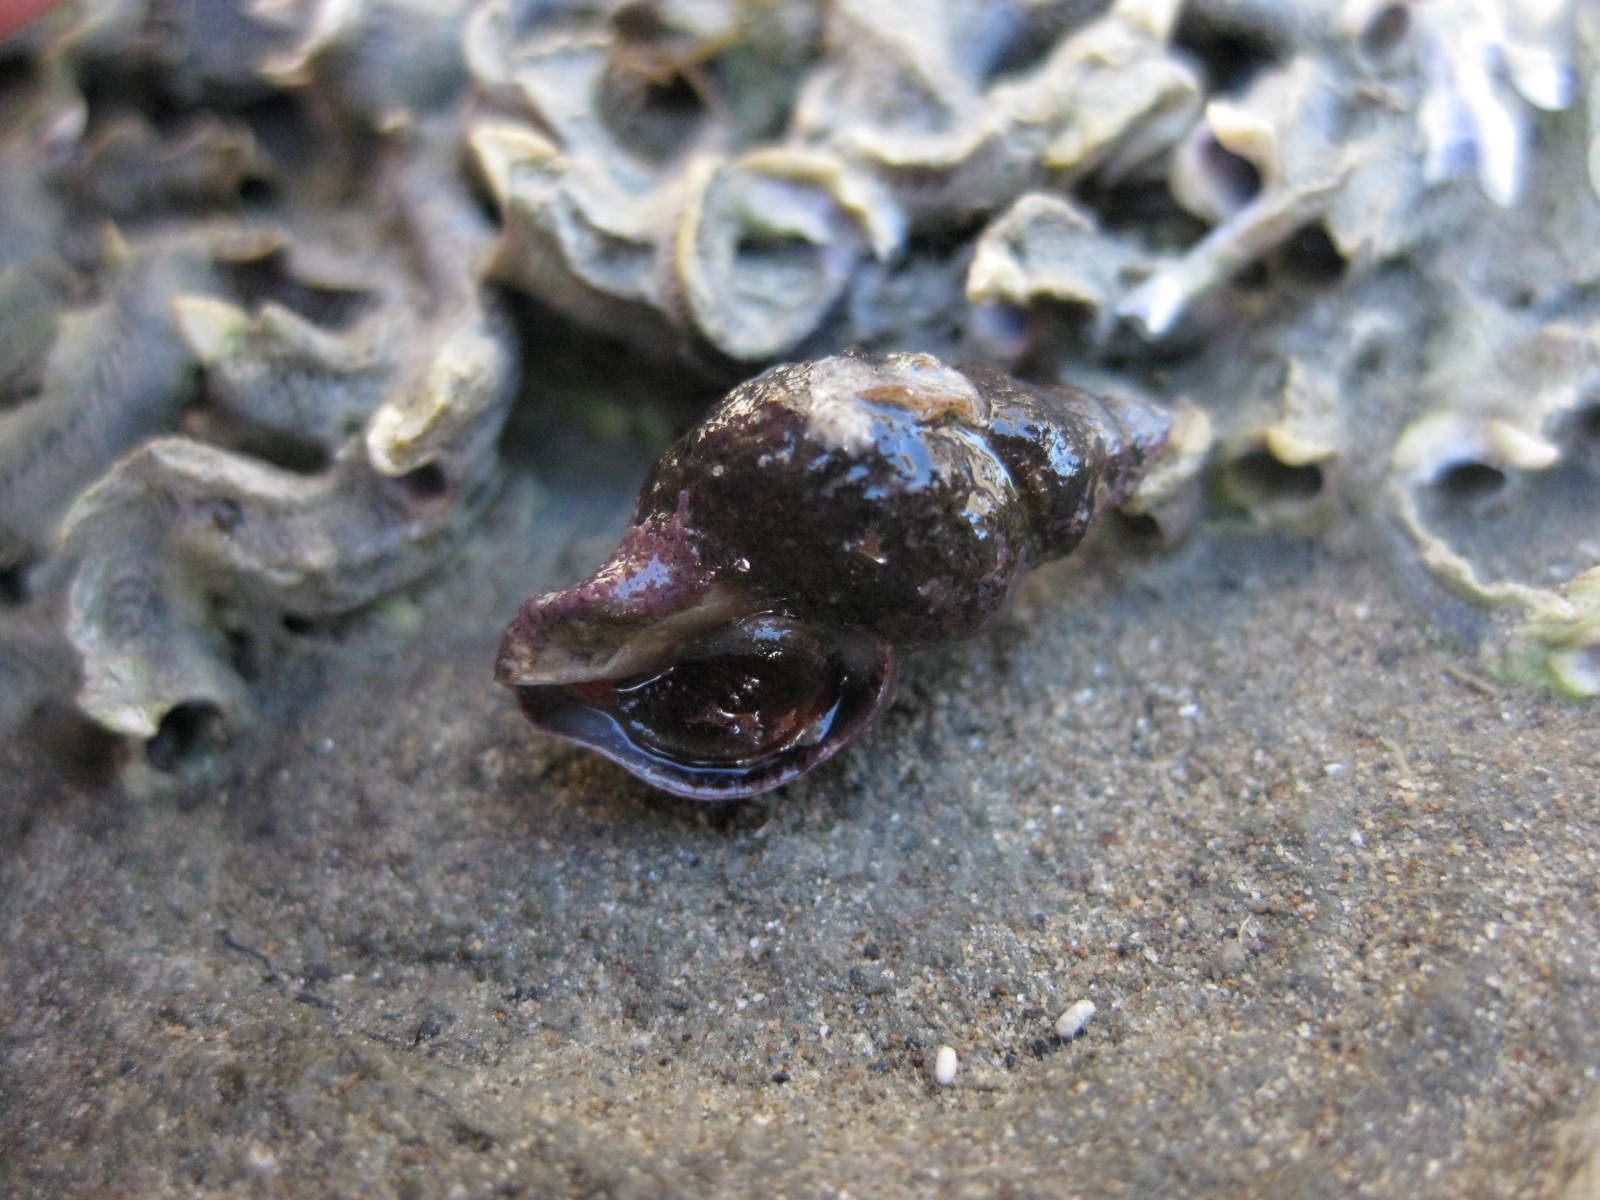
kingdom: Animalia
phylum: Annelida
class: Polychaeta
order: Sabellida
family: Serpulidae
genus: Spirobranchus
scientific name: Spirobranchus cariniferus
